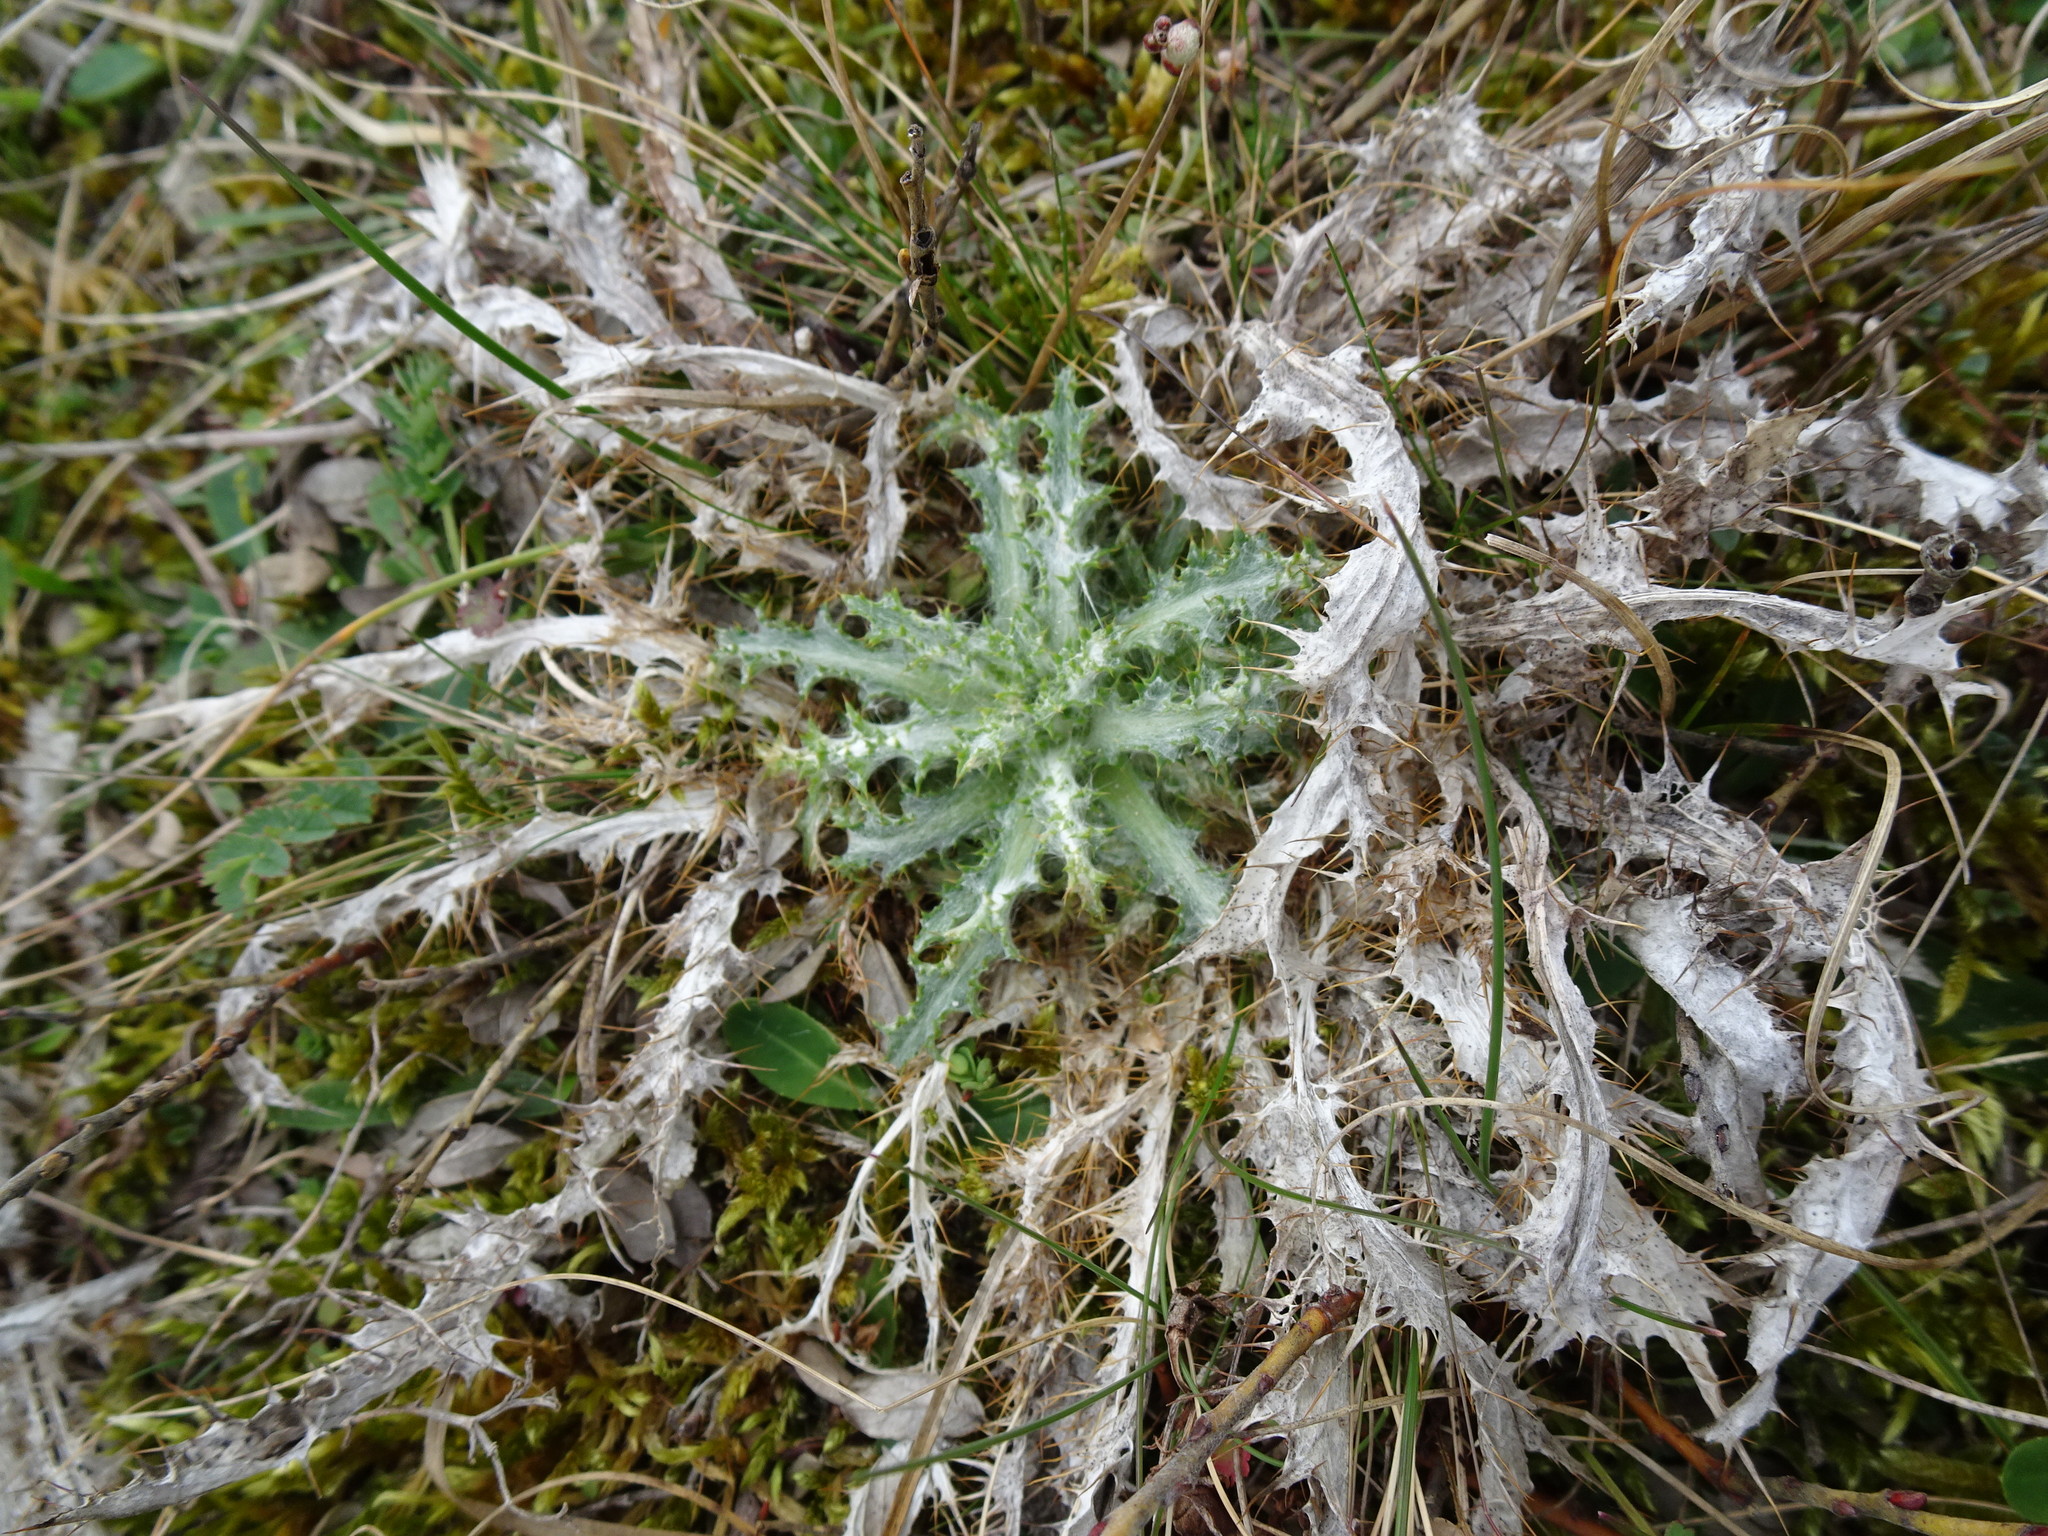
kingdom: Plantae
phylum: Tracheophyta
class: Magnoliopsida
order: Asterales
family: Asteraceae
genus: Carlina
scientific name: Carlina vulgaris
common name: Carline thistle
